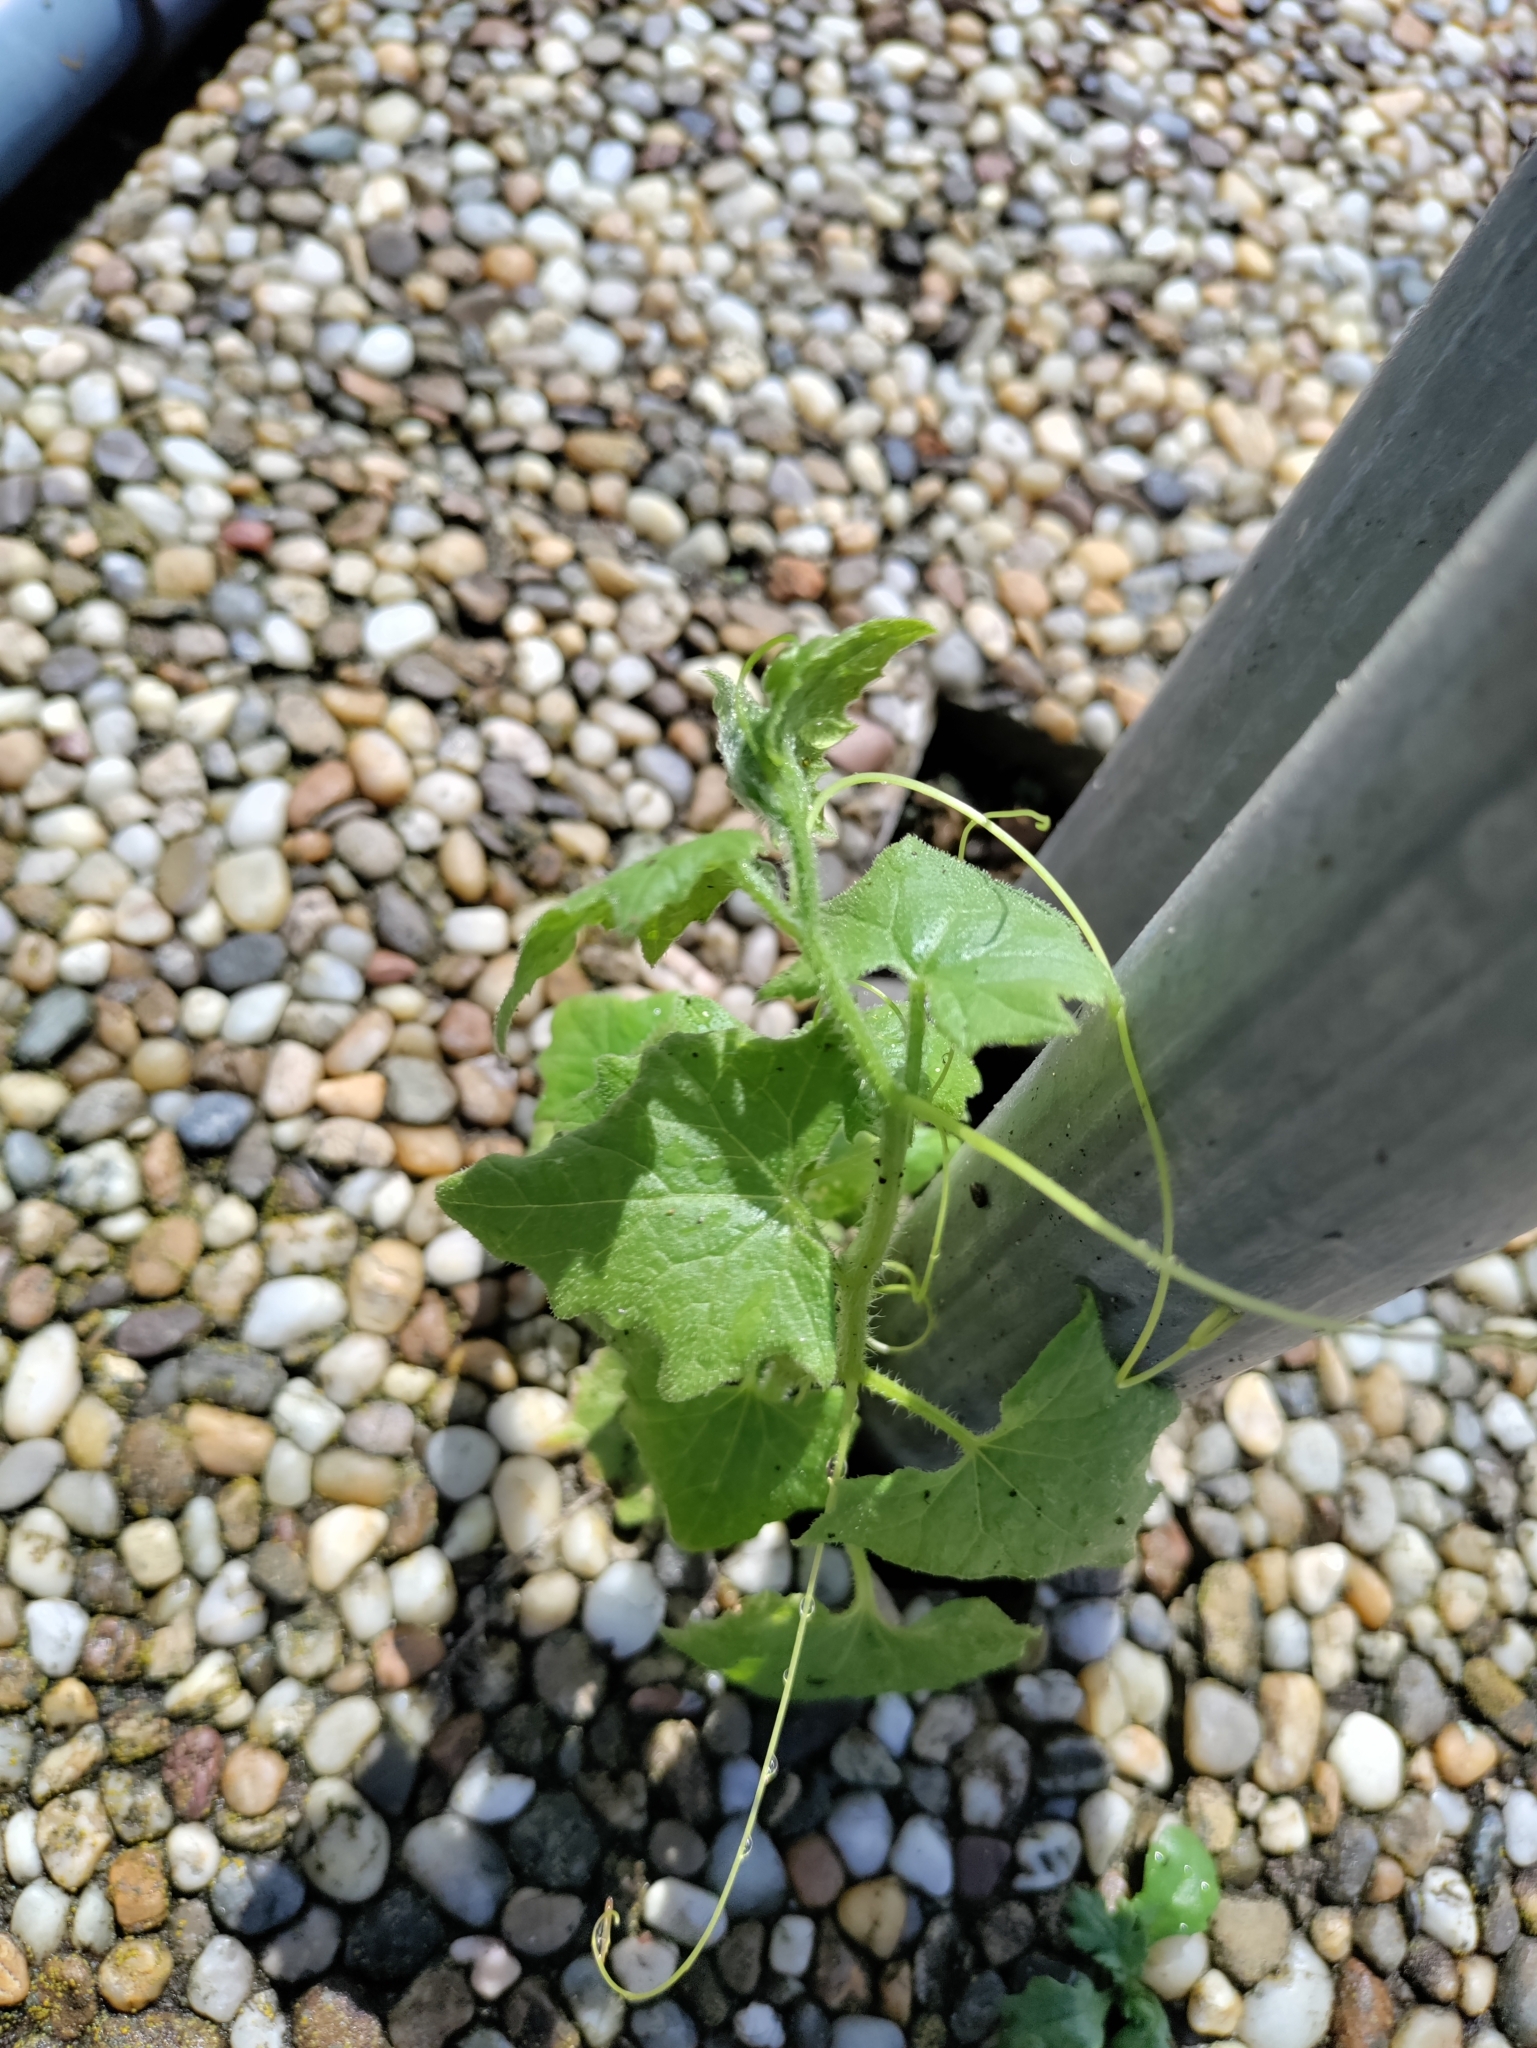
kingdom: Plantae
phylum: Tracheophyta
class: Magnoliopsida
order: Cucurbitales
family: Cucurbitaceae
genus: Bryonia
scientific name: Bryonia cretica
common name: Cretan bryony
